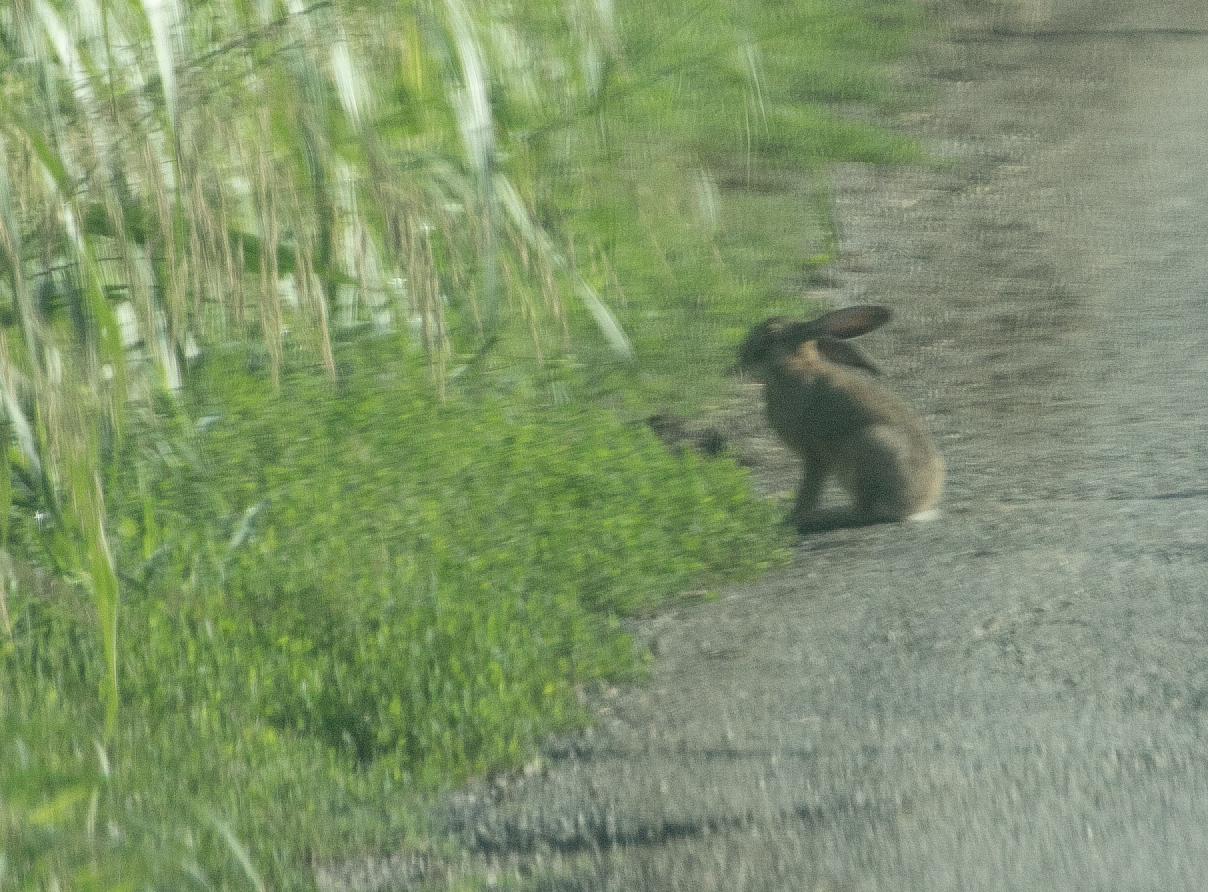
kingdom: Animalia
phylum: Chordata
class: Mammalia
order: Lagomorpha
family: Leporidae
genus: Lepus
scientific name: Lepus europaeus
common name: European hare
